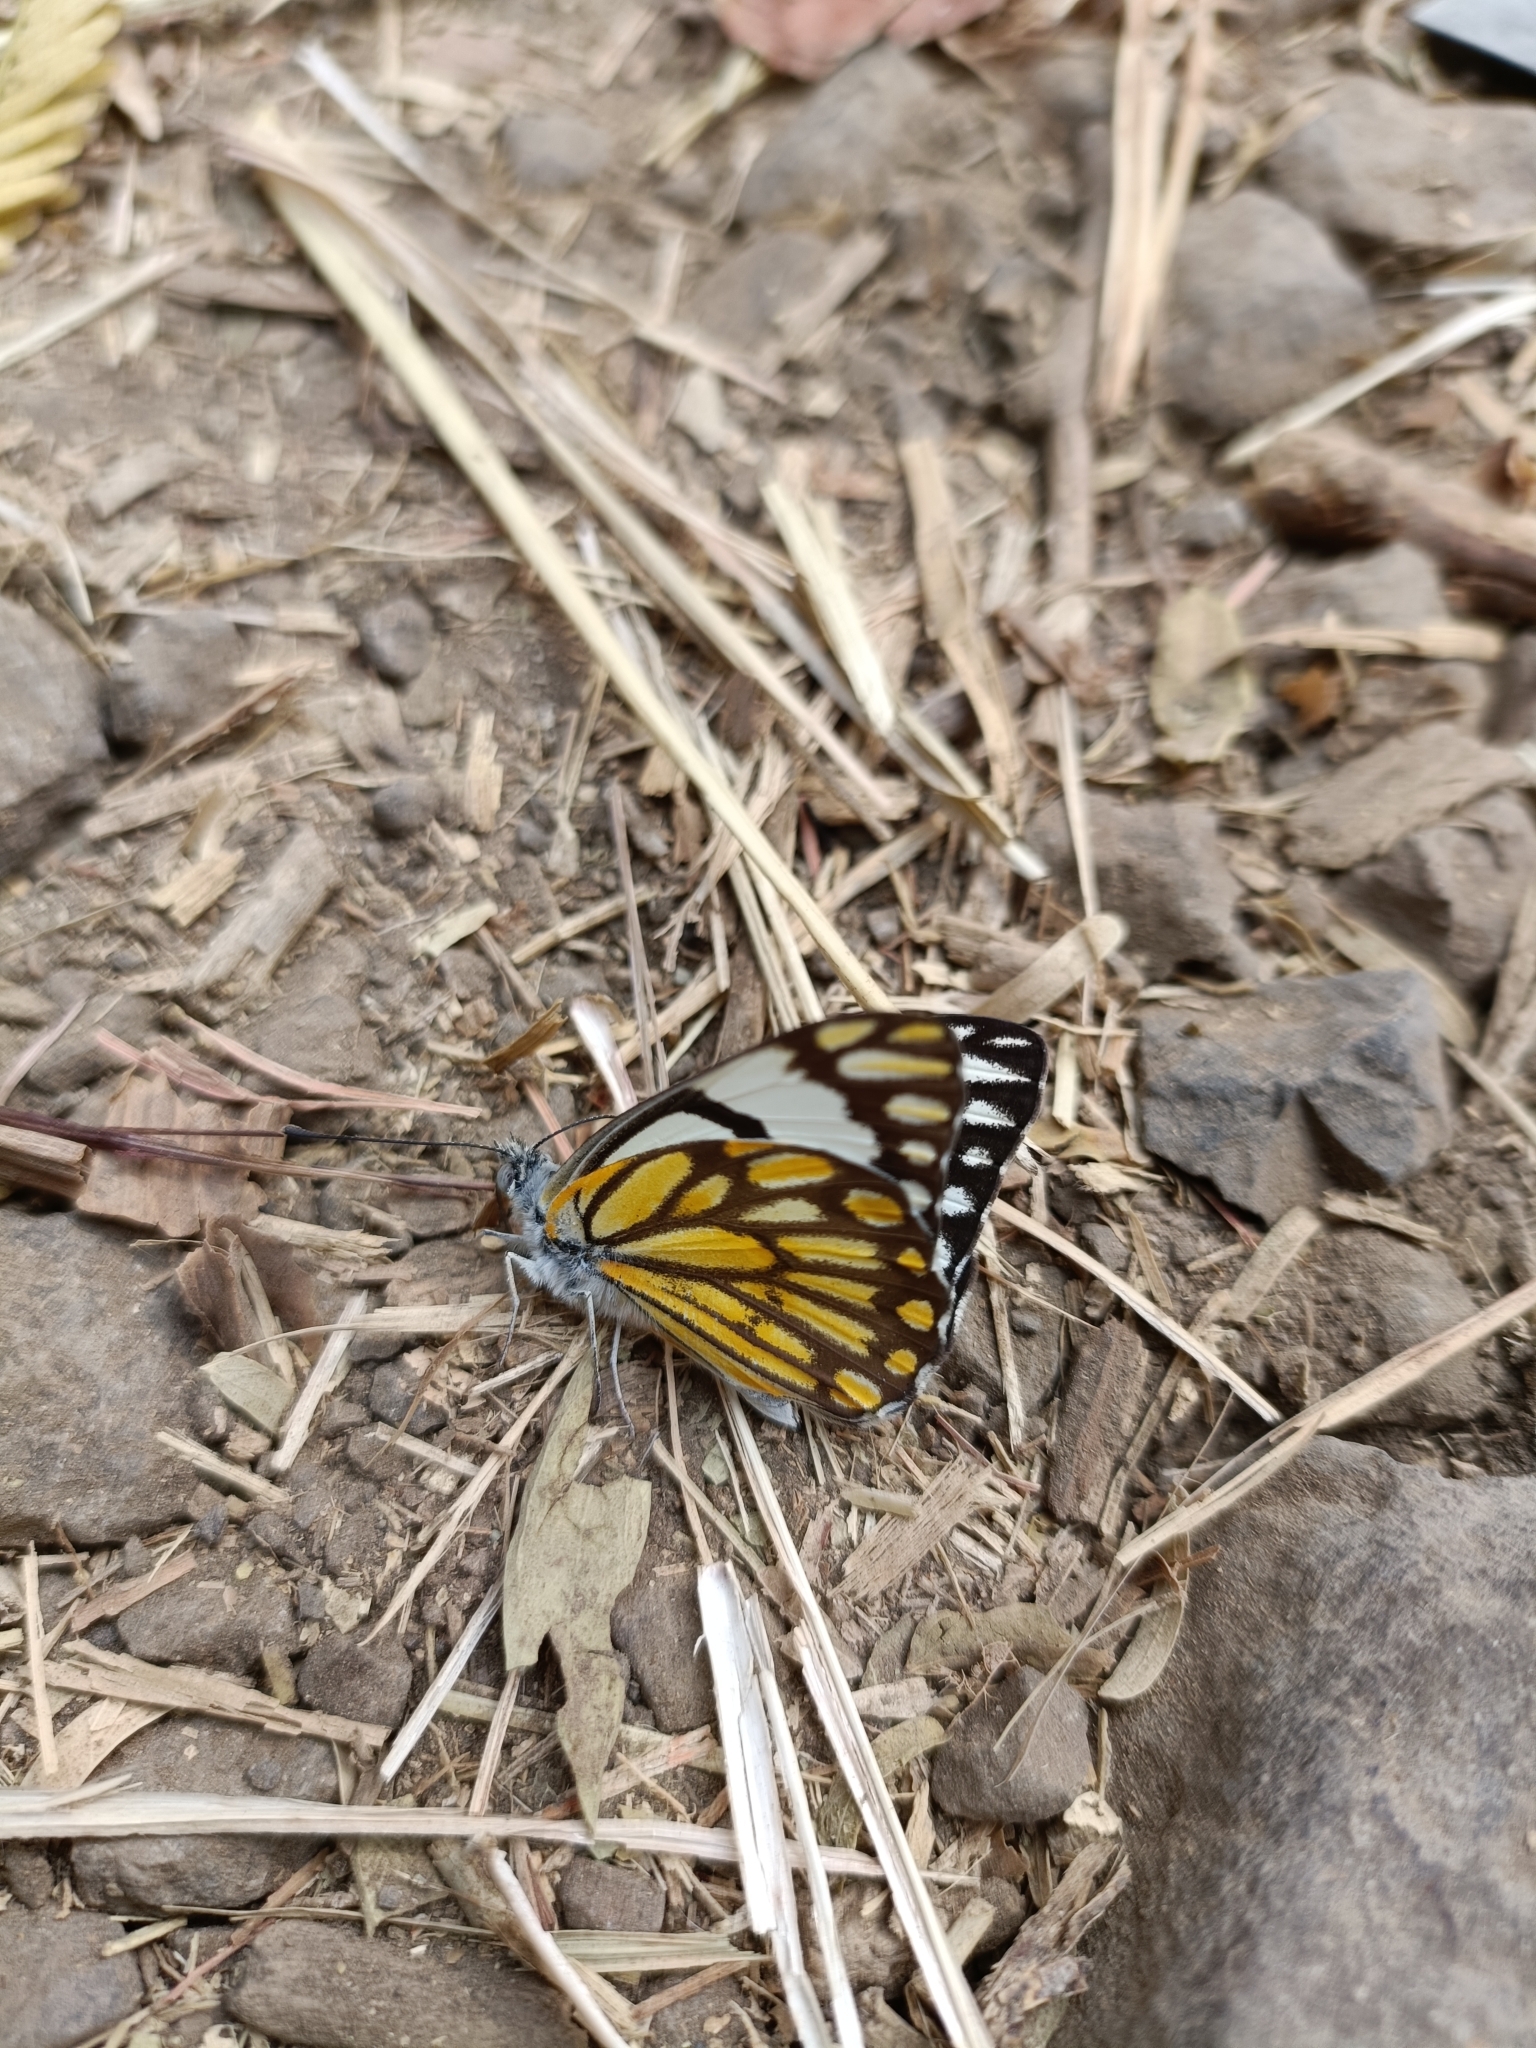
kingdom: Animalia
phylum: Arthropoda
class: Insecta
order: Lepidoptera
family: Pieridae
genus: Belenois
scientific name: Belenois aurota
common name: Brown-veined white
